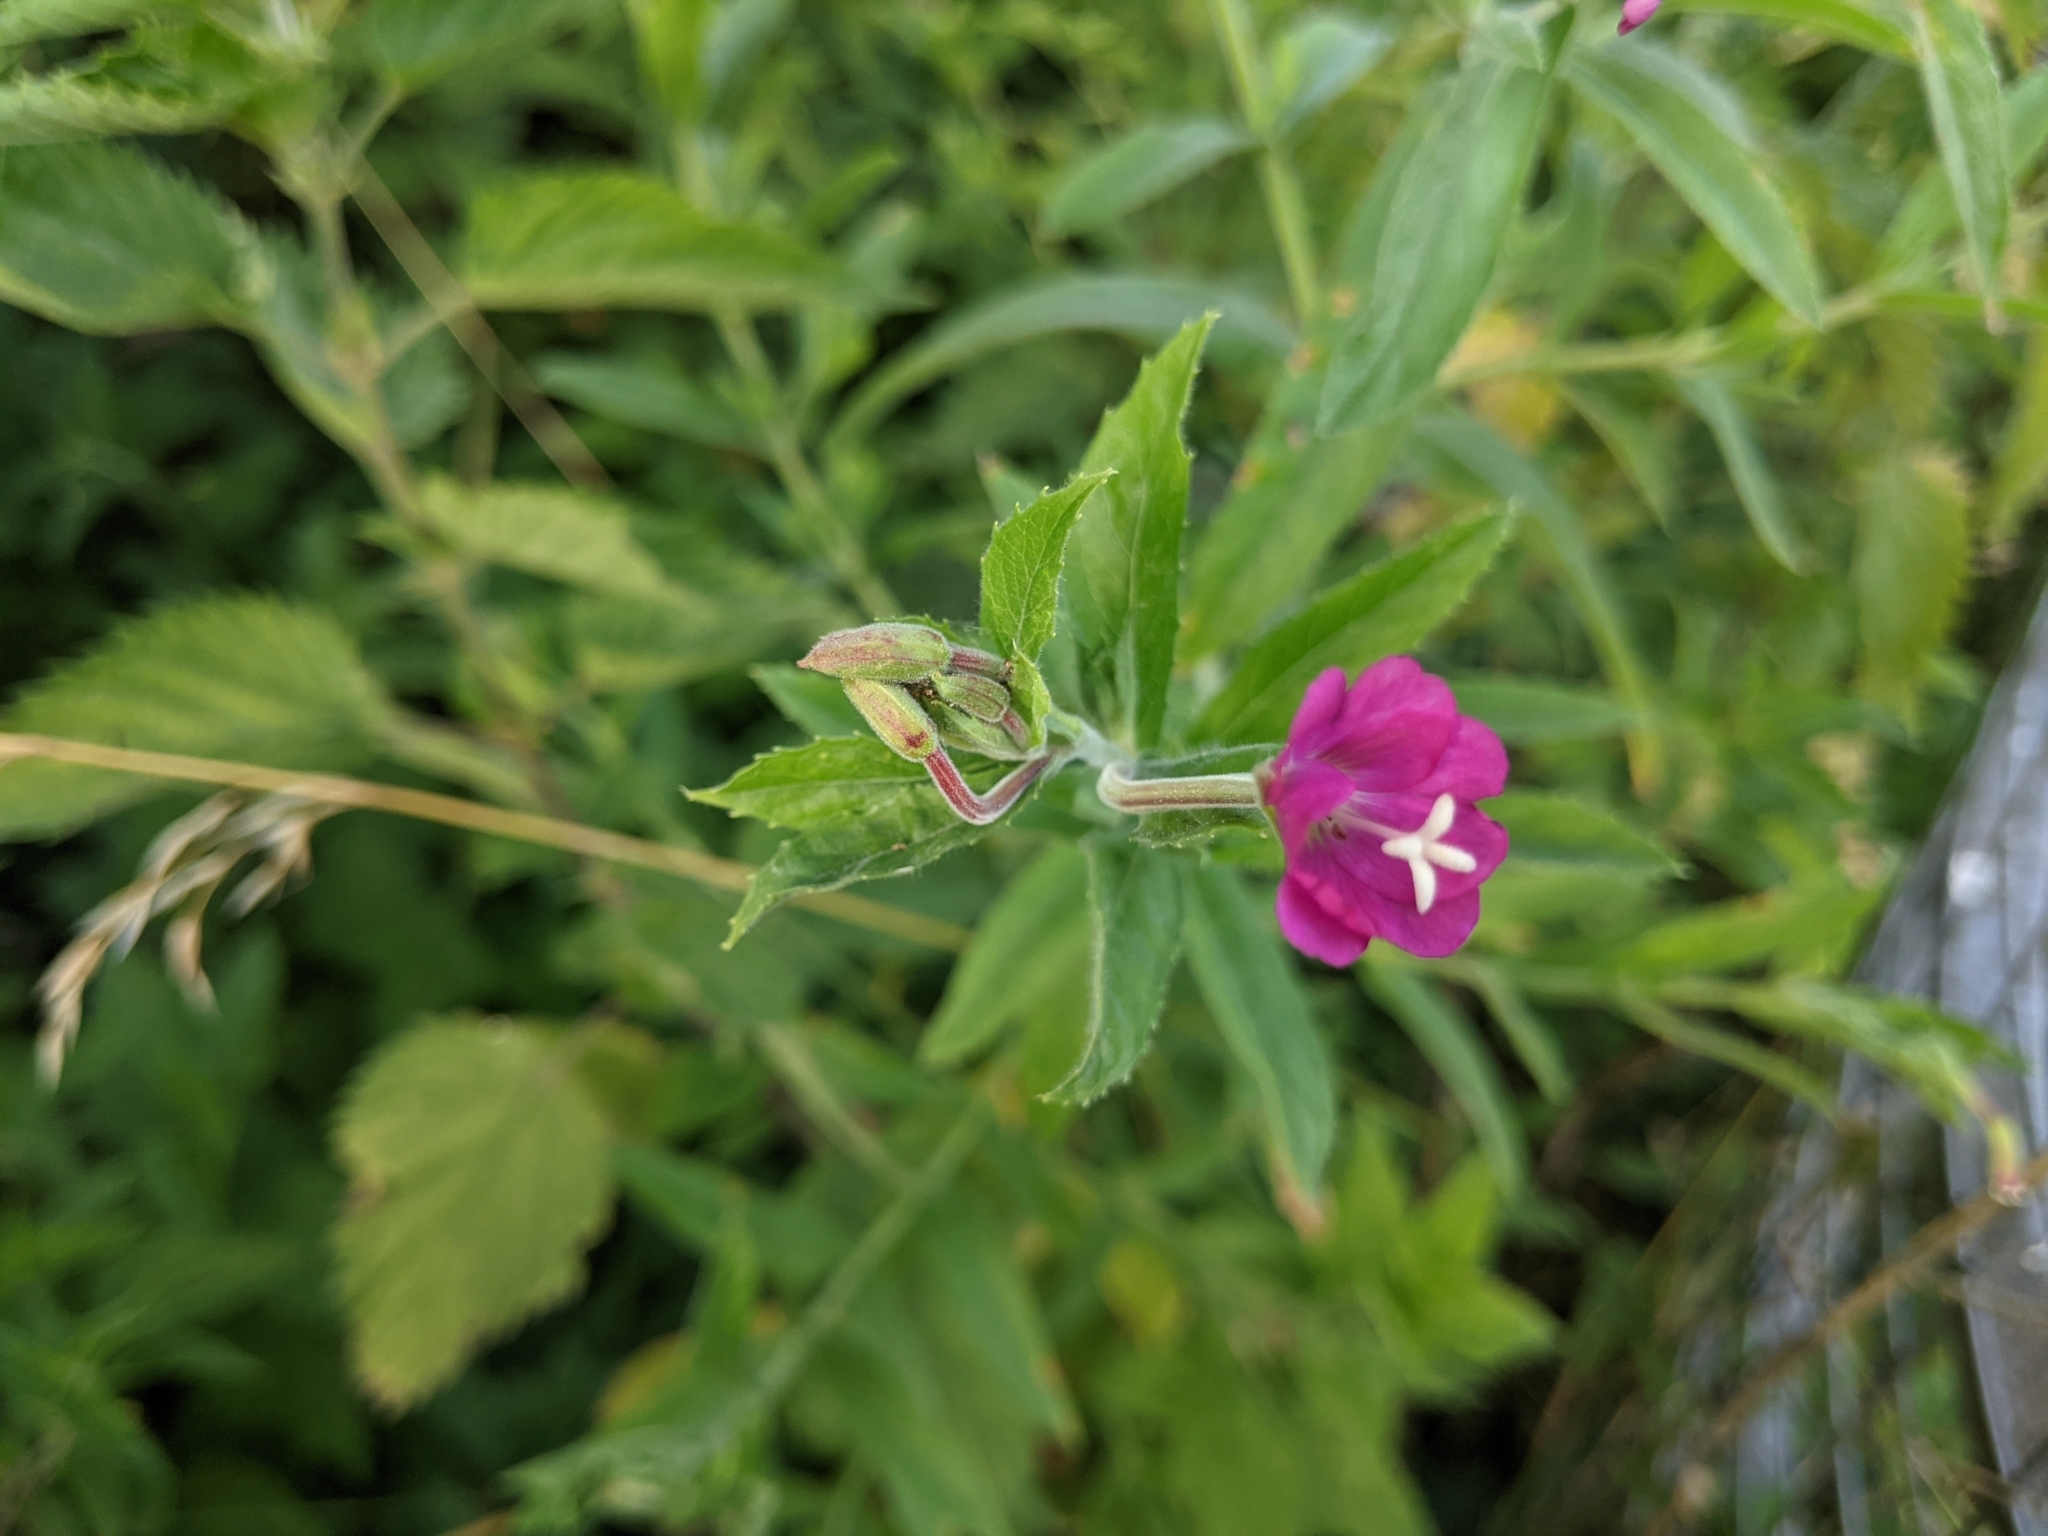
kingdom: Plantae
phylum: Tracheophyta
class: Magnoliopsida
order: Myrtales
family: Onagraceae
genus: Epilobium
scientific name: Epilobium hirsutum
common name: Great willowherb
